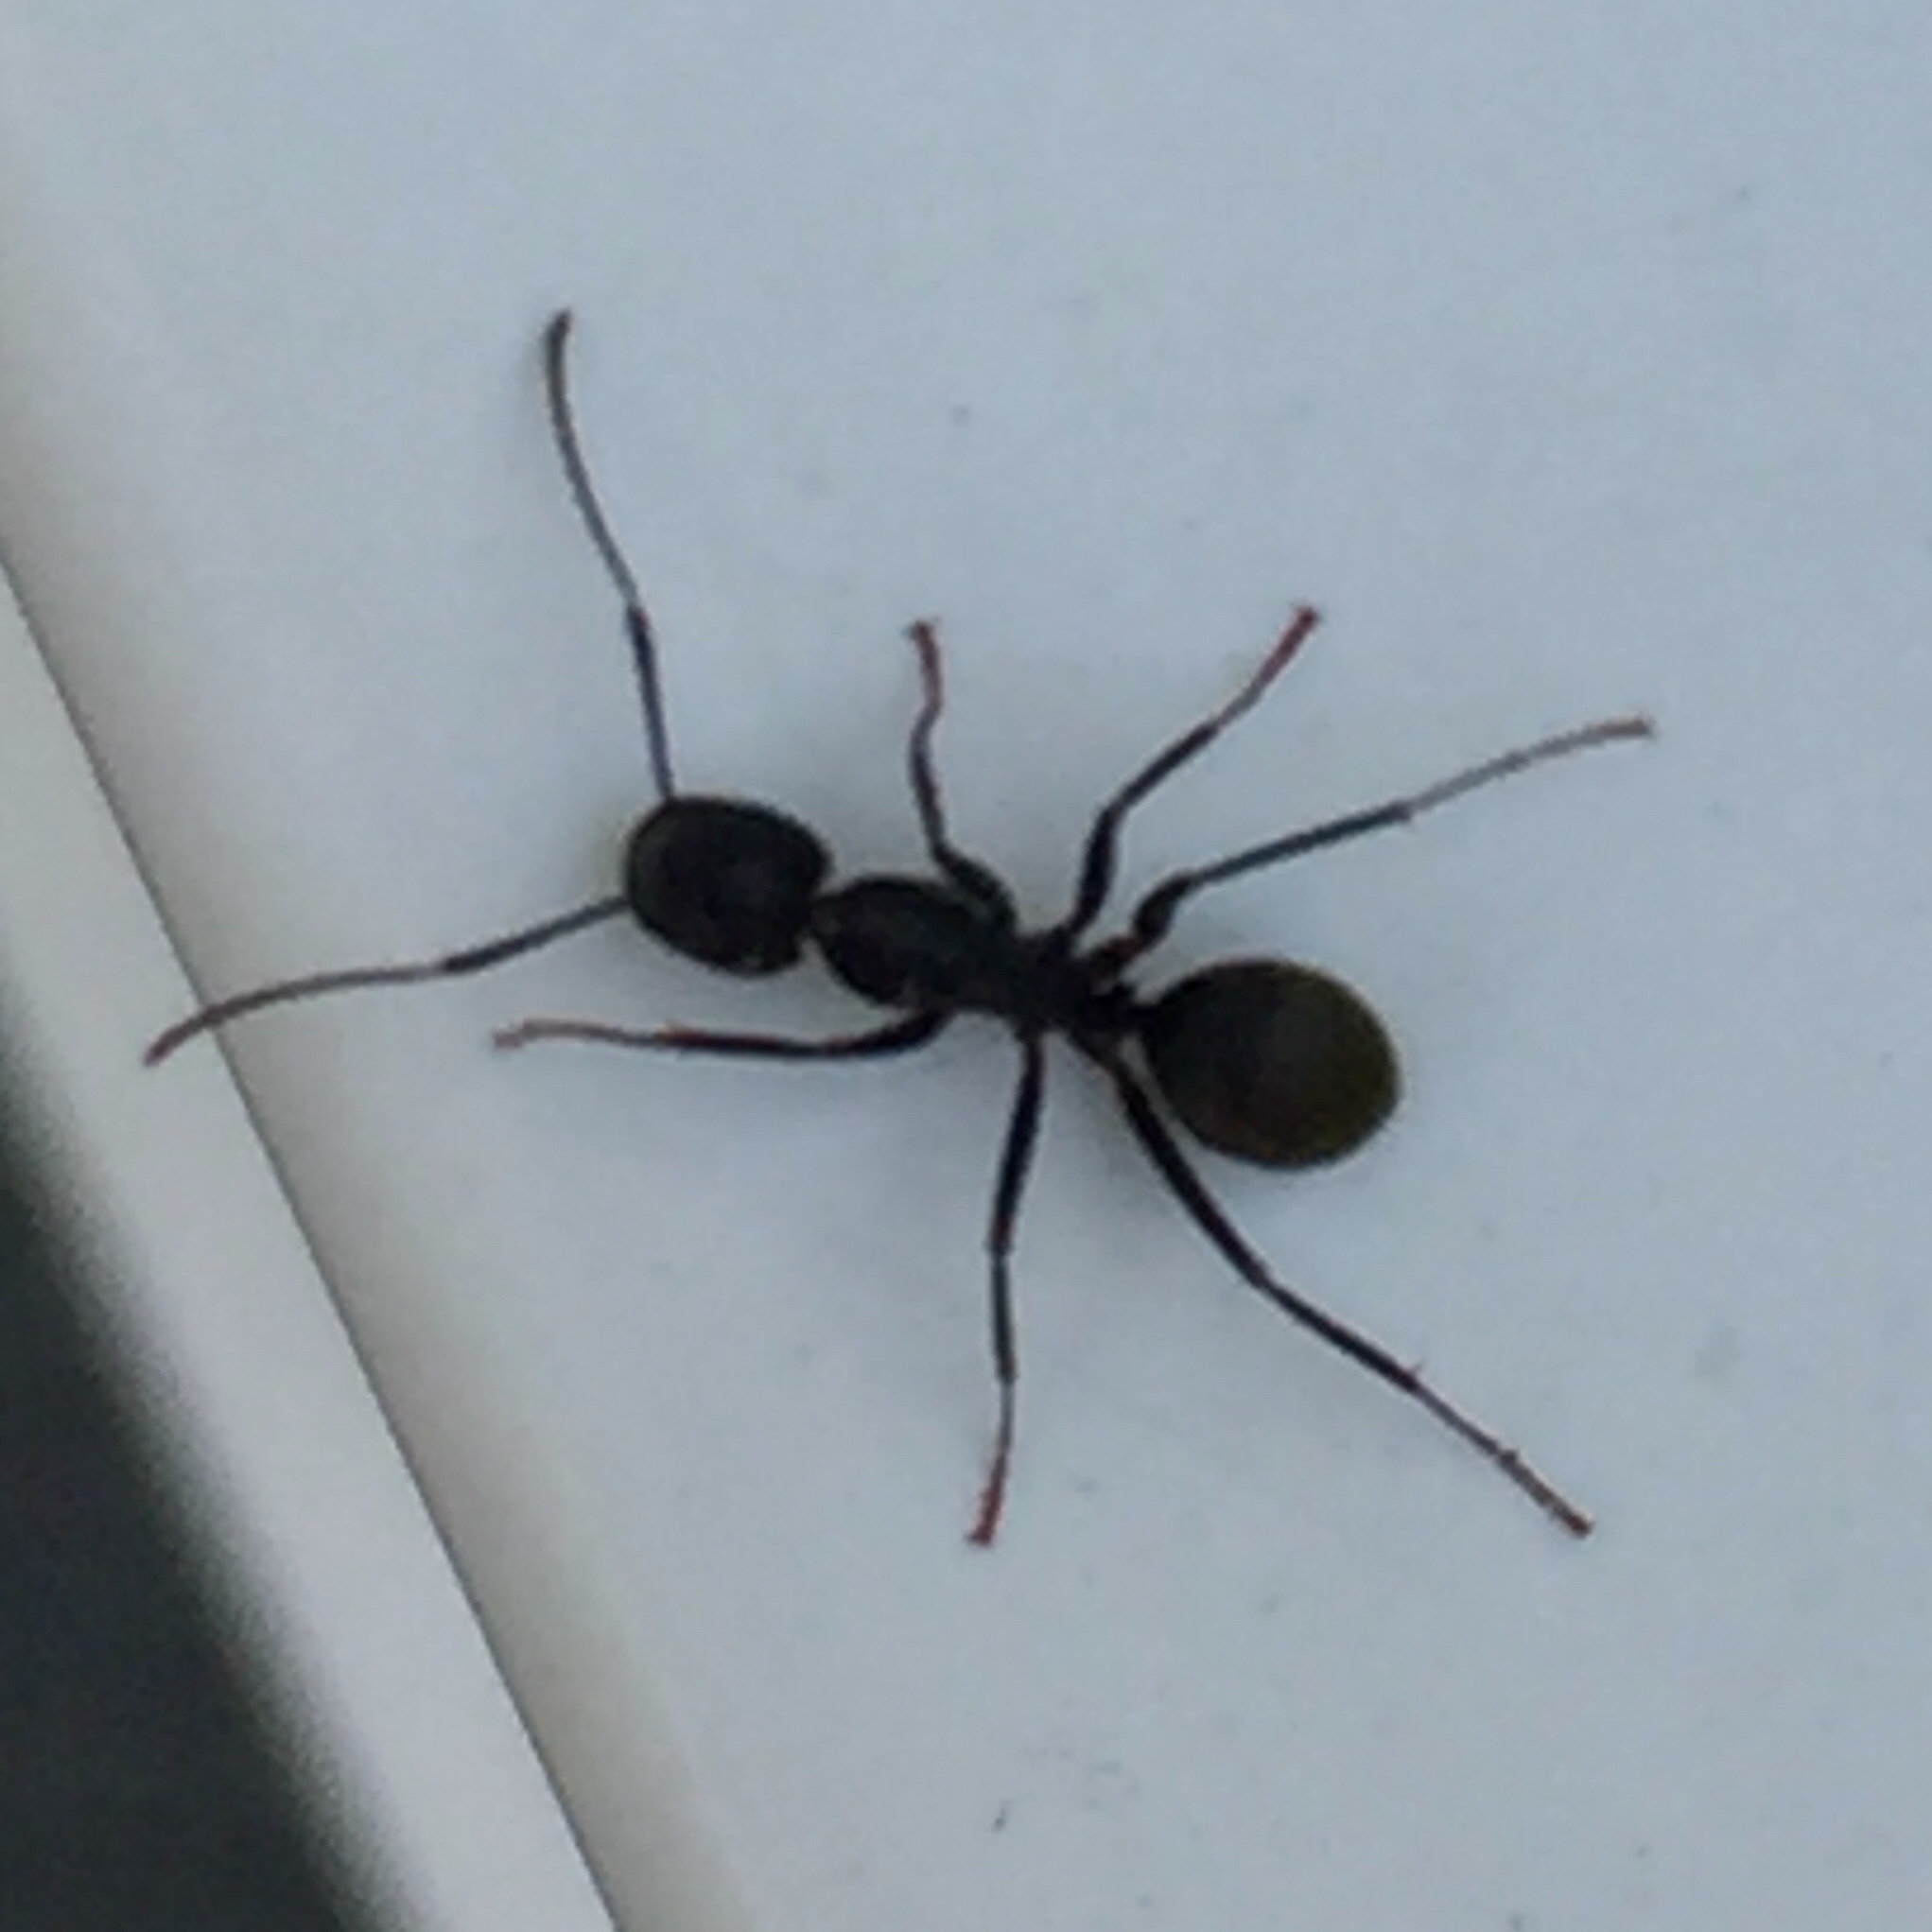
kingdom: Animalia
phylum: Arthropoda
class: Insecta
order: Hymenoptera
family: Formicidae
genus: Camponotus
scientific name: Camponotus pennsylvanicus
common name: Black carpenter ant
